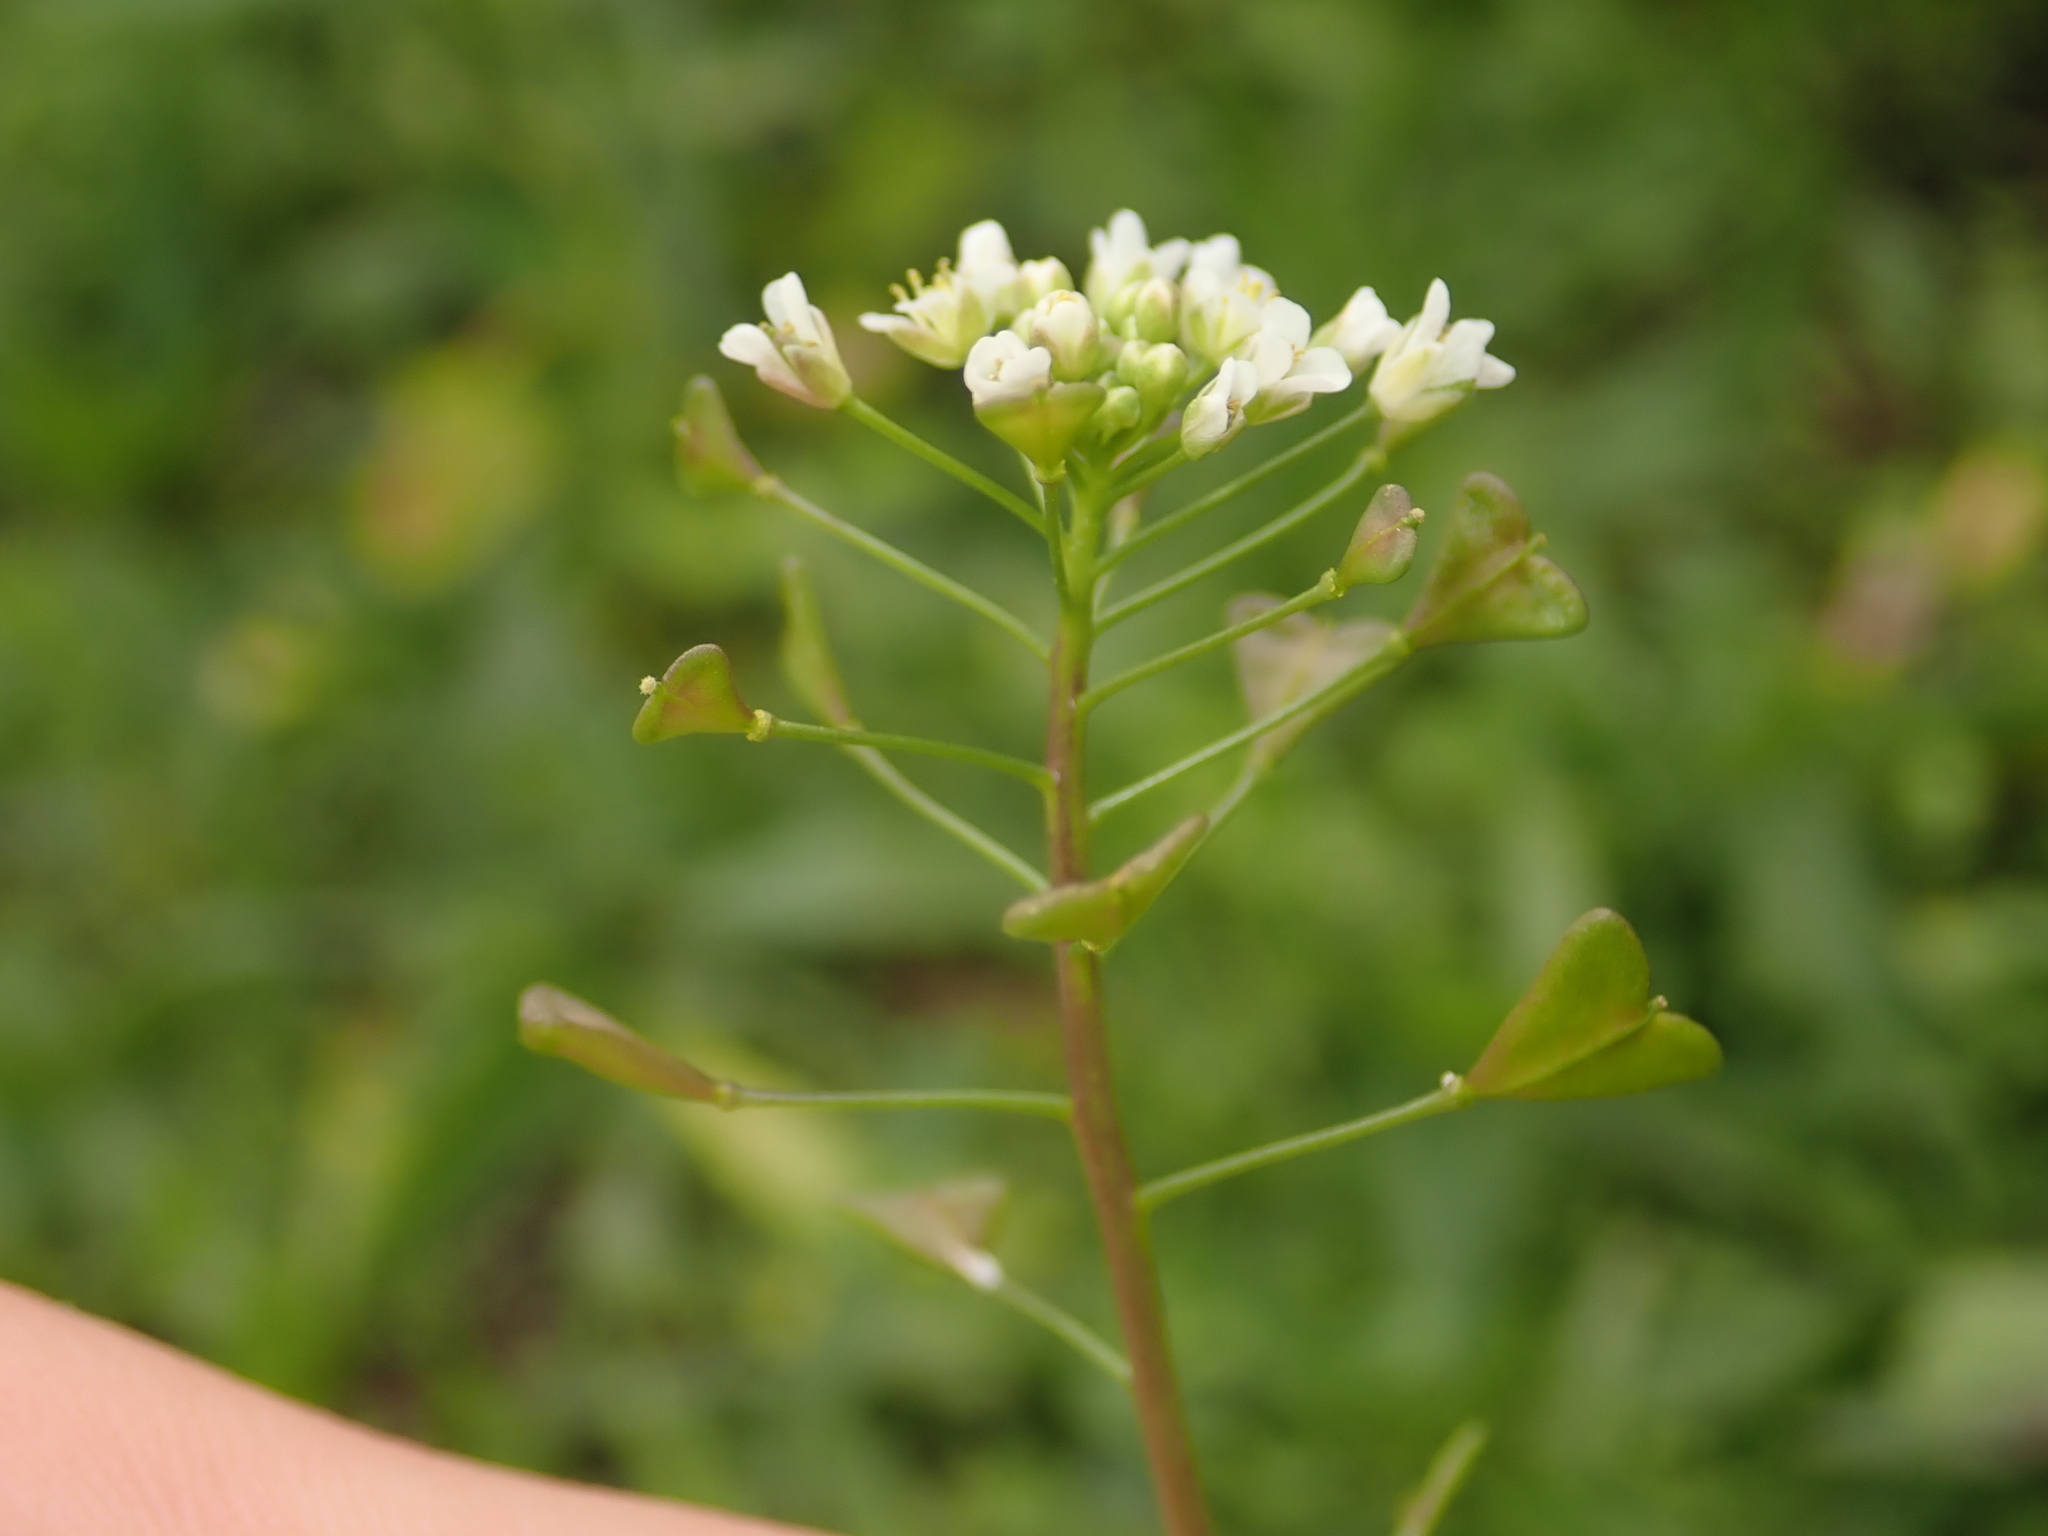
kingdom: Plantae
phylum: Tracheophyta
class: Magnoliopsida
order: Brassicales
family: Brassicaceae
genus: Capsella
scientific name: Capsella bursa-pastoris
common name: Shepherd's purse
